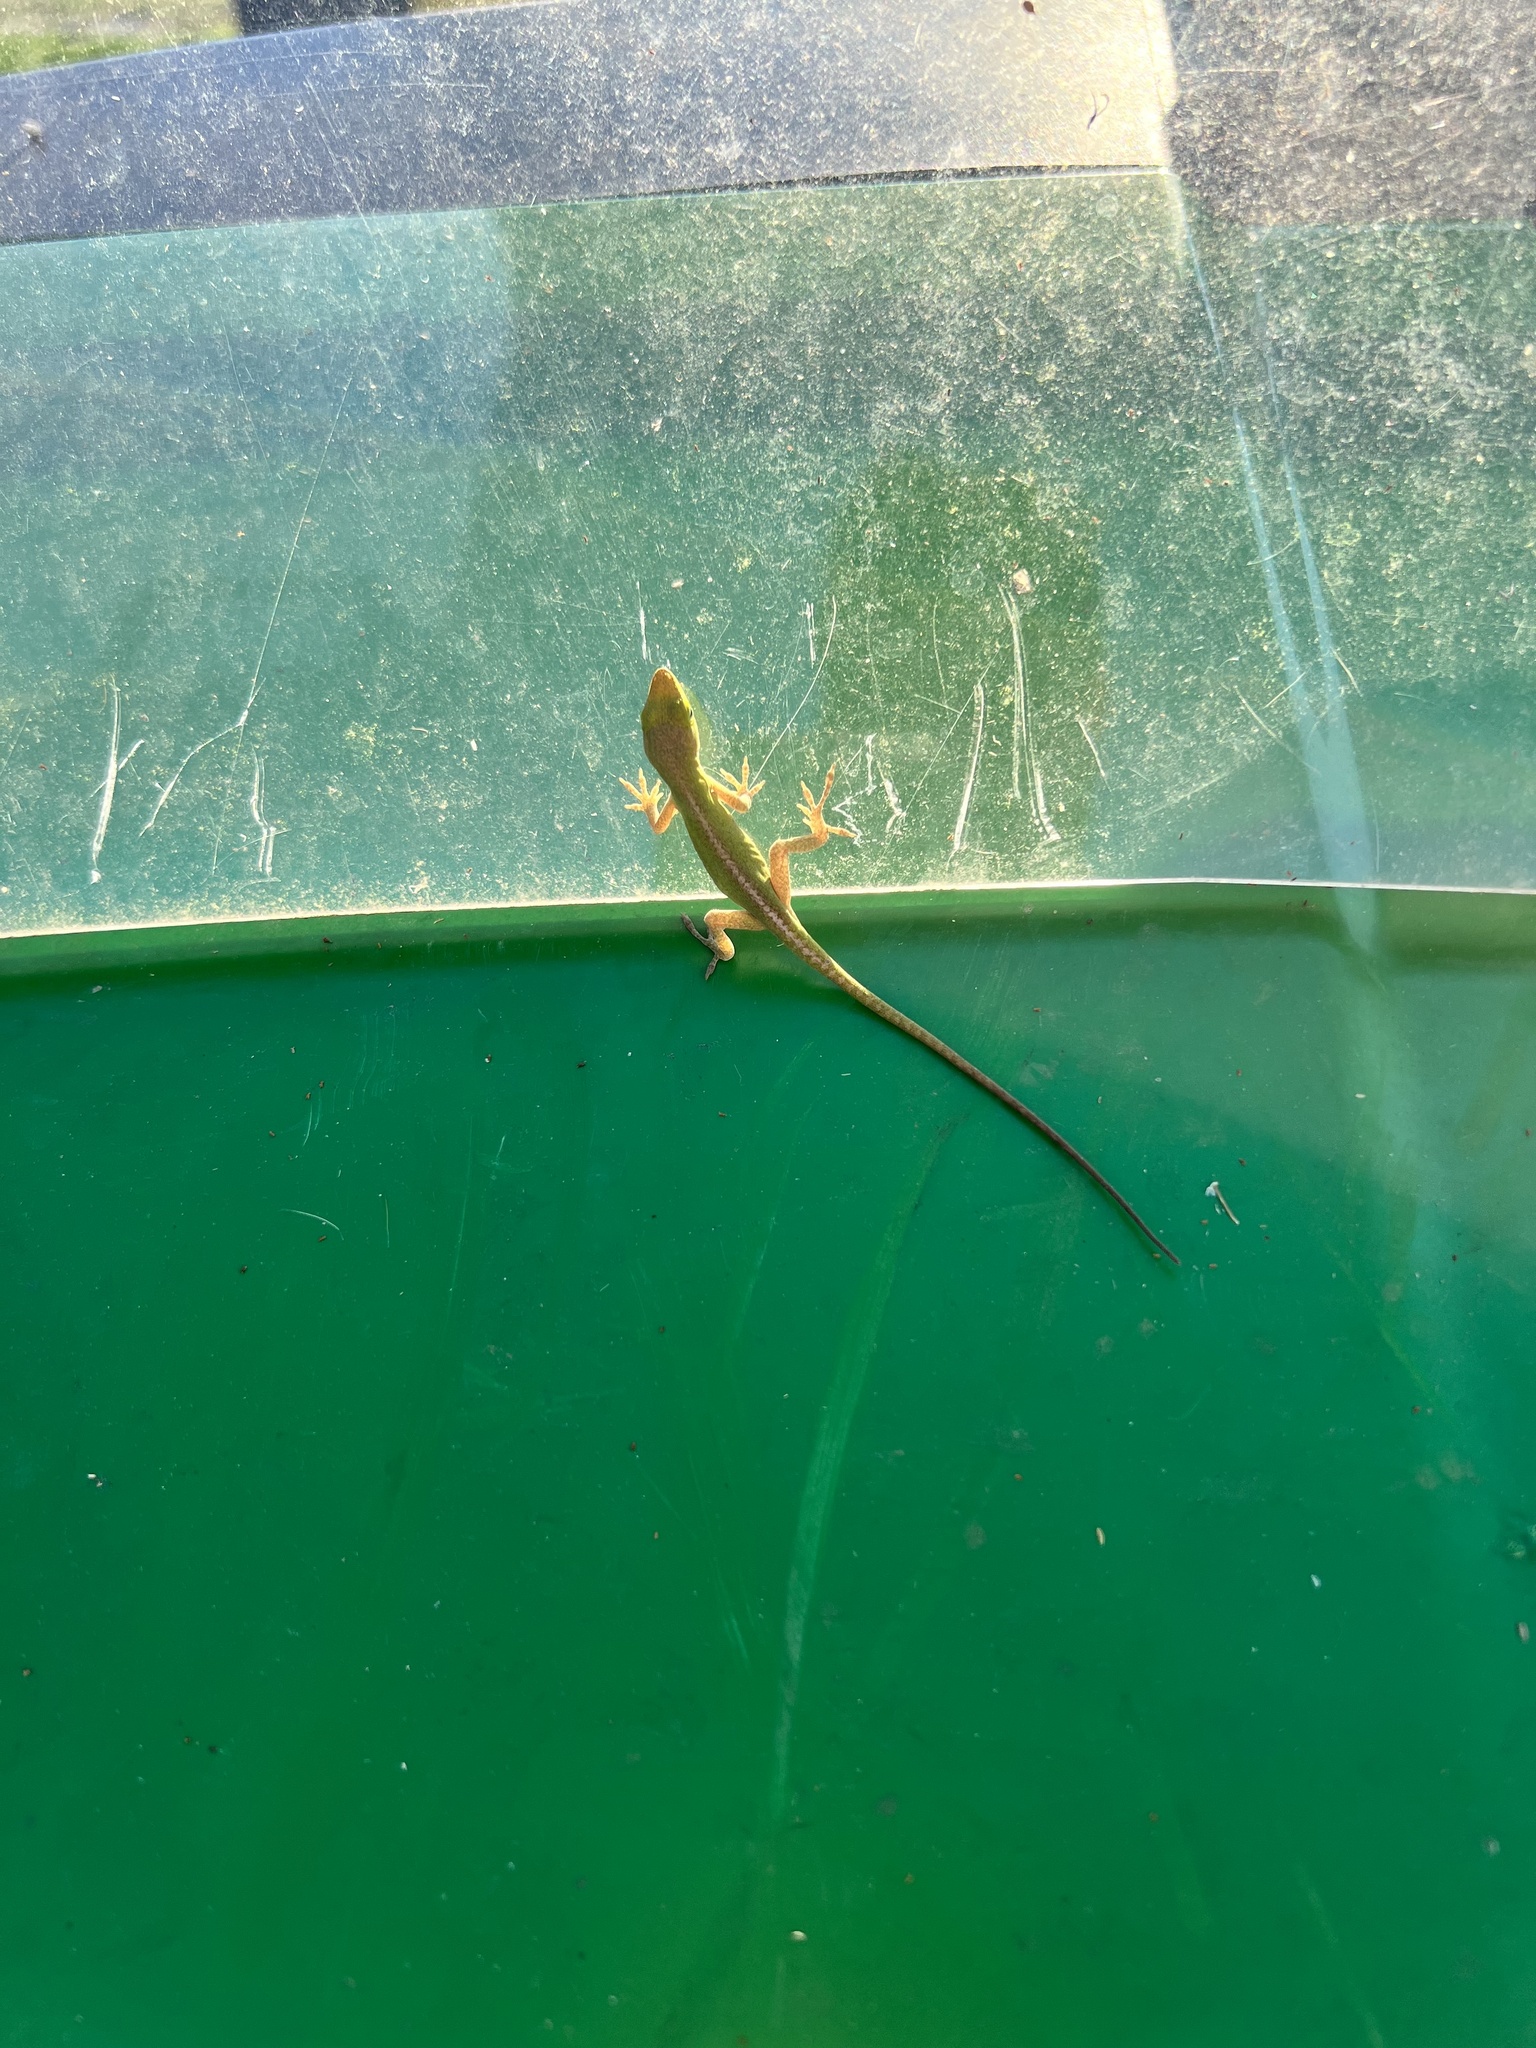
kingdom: Animalia
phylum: Chordata
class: Squamata
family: Dactyloidae
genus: Anolis
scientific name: Anolis carolinensis
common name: Green anole
